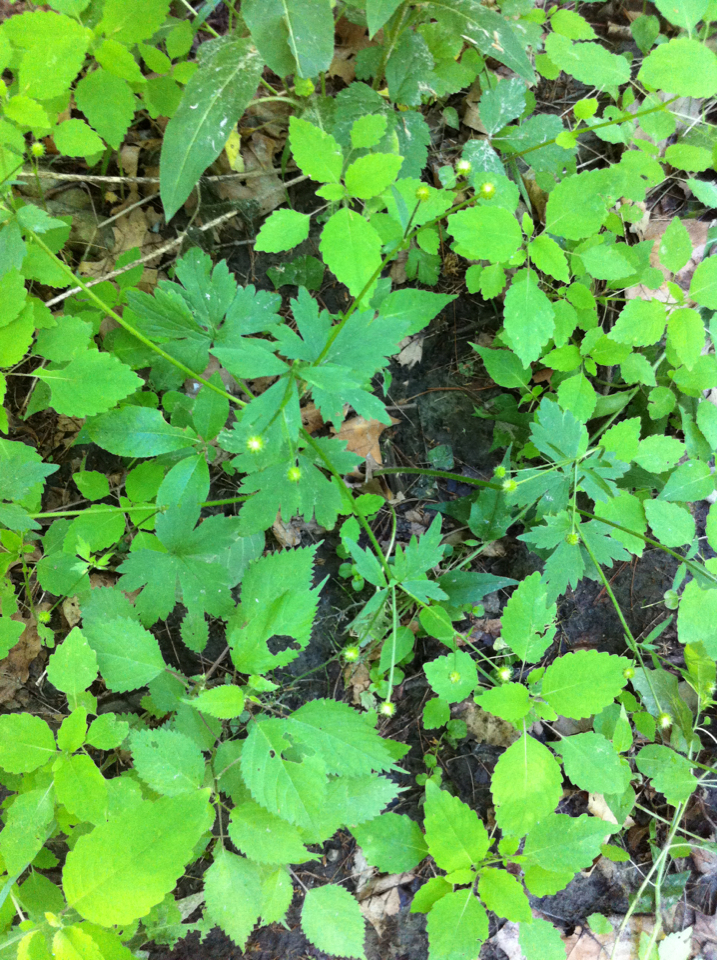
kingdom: Plantae
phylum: Tracheophyta
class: Magnoliopsida
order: Ranunculales
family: Ranunculaceae
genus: Ranunculus
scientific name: Ranunculus recurvatus
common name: Blisterwort
